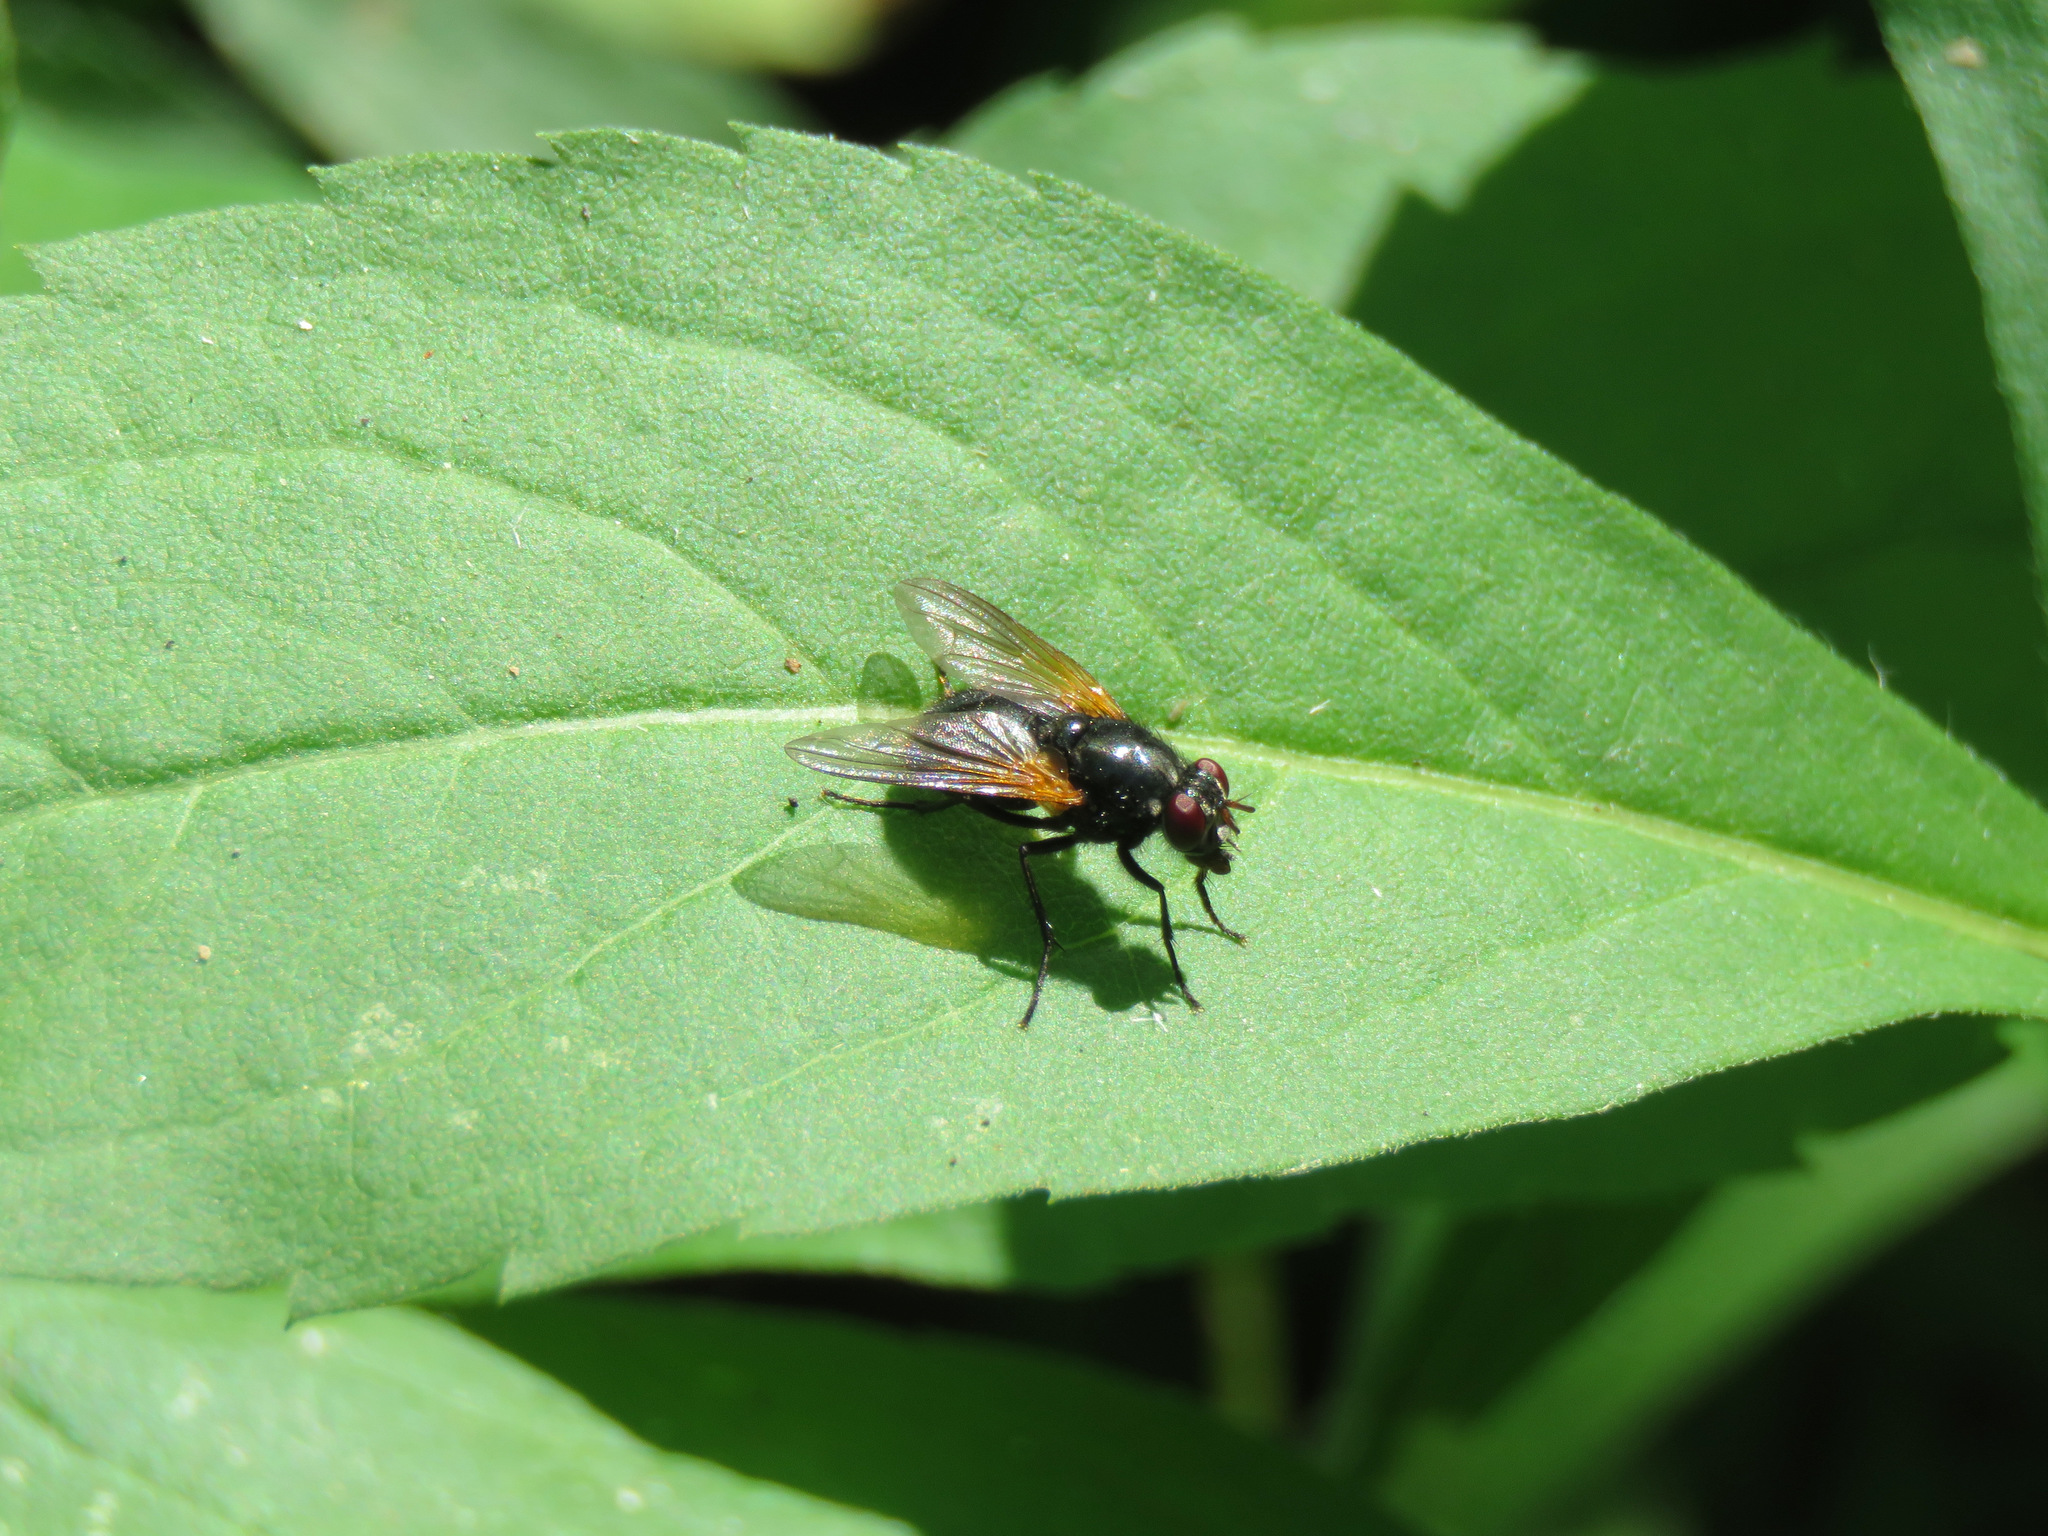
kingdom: Animalia
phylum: Arthropoda
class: Insecta
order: Diptera
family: Muscidae
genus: Mesembrina
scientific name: Mesembrina latreillii
